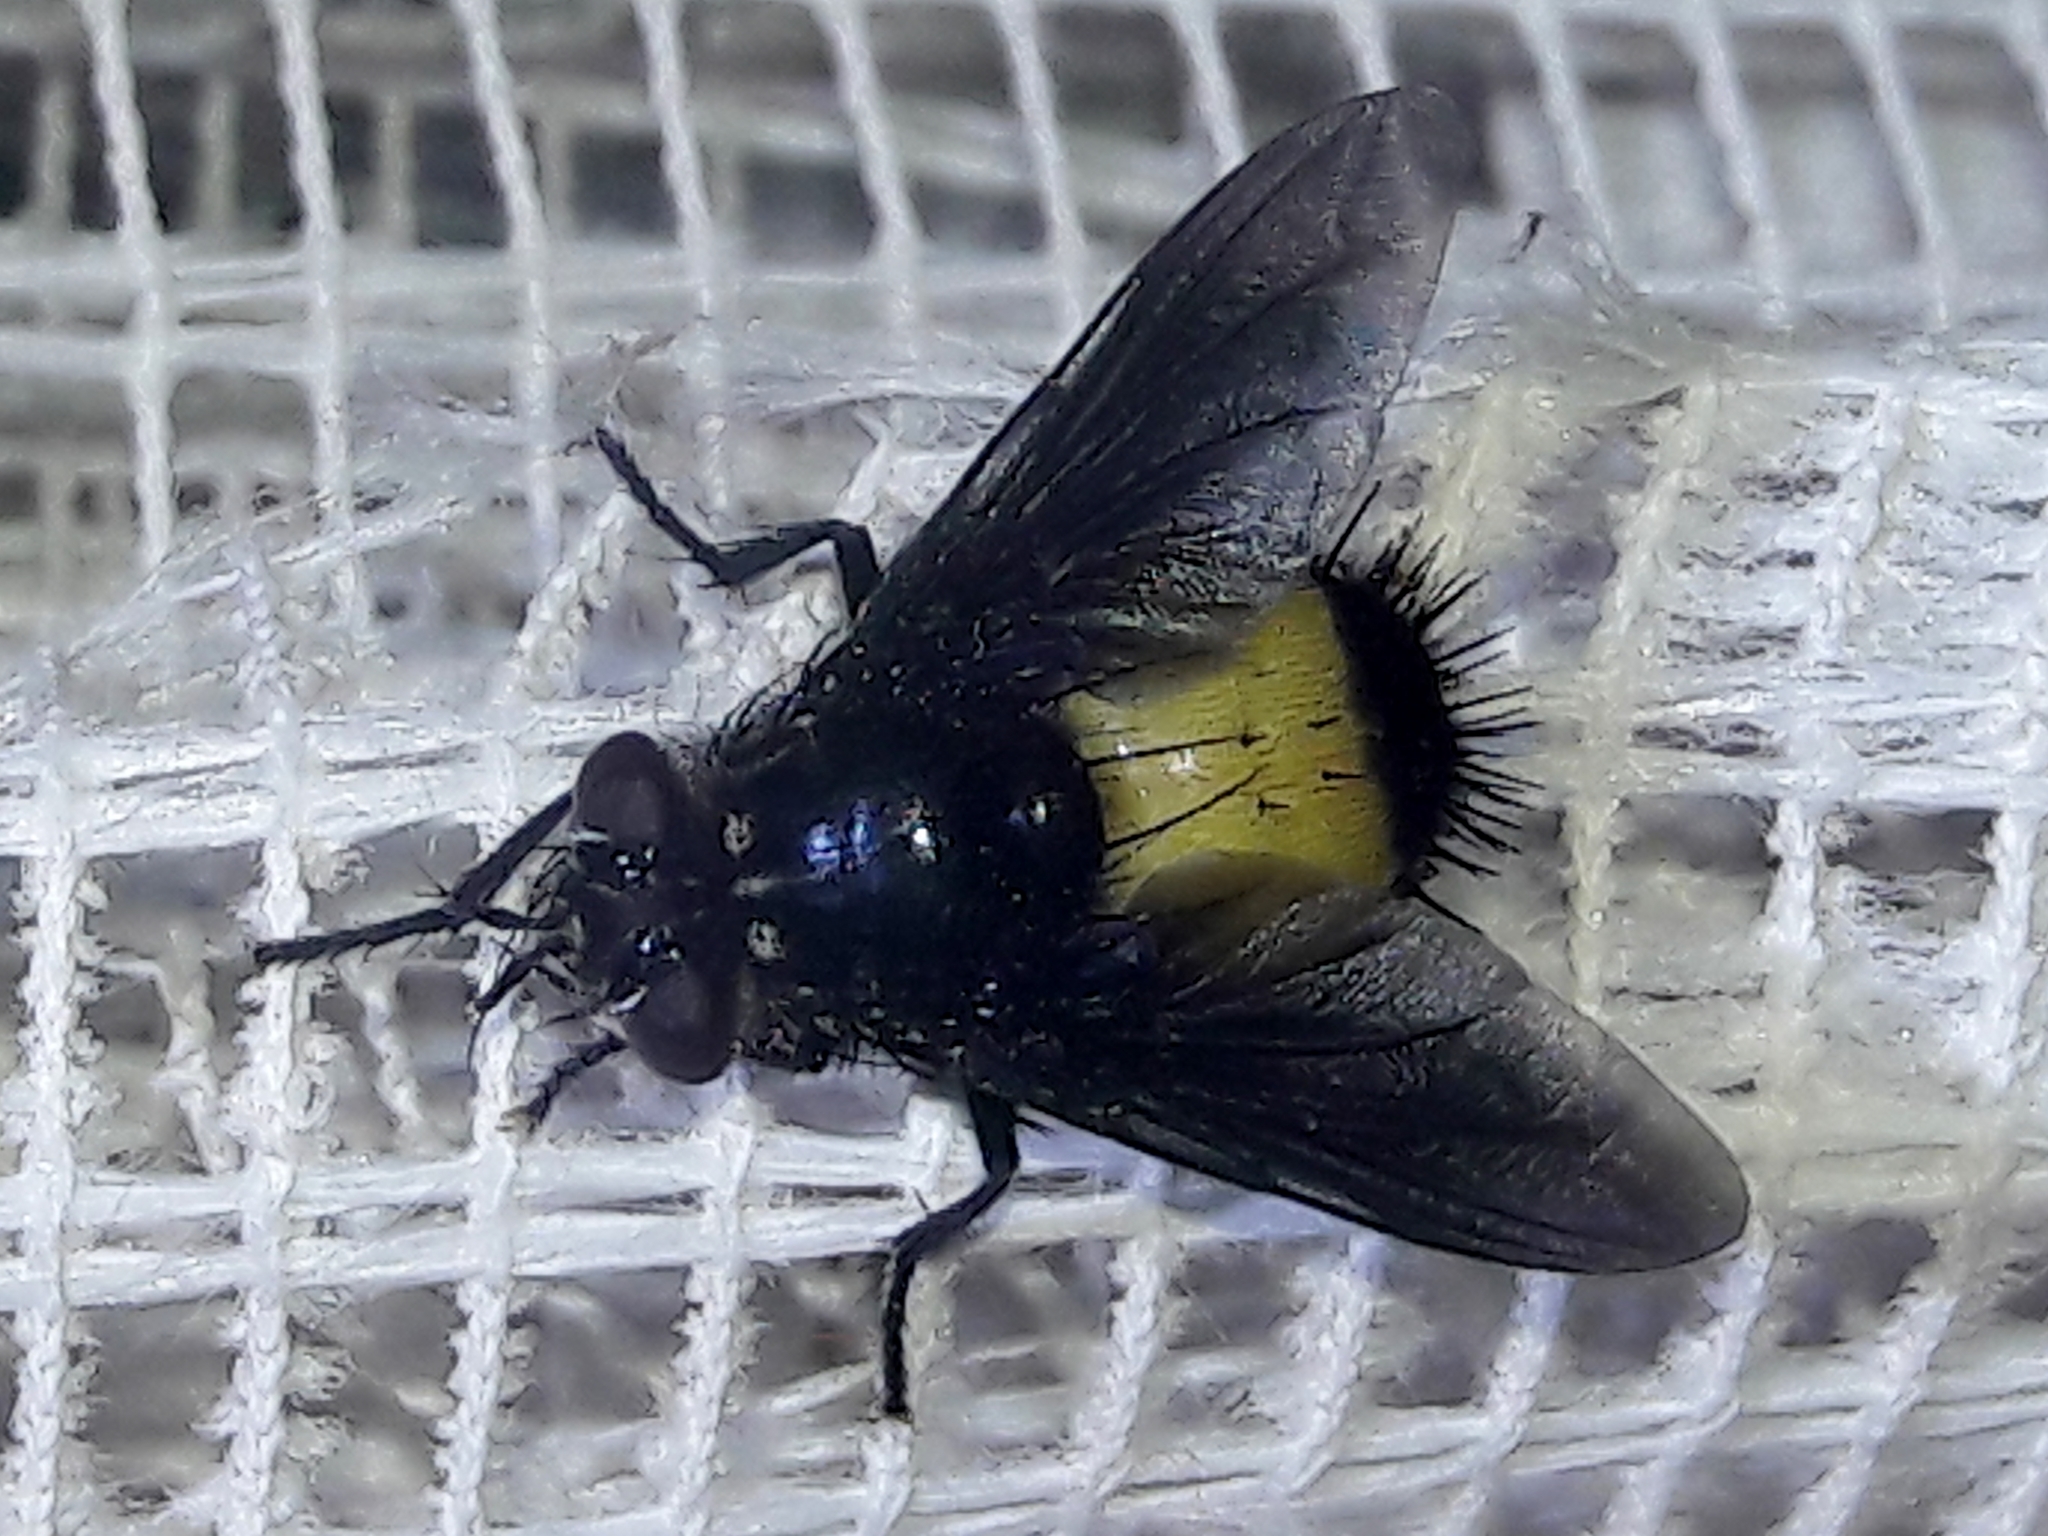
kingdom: Animalia
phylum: Arthropoda
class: Insecta
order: Diptera
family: Tachinidae
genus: Xanthozona
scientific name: Xanthozona melanopyga
